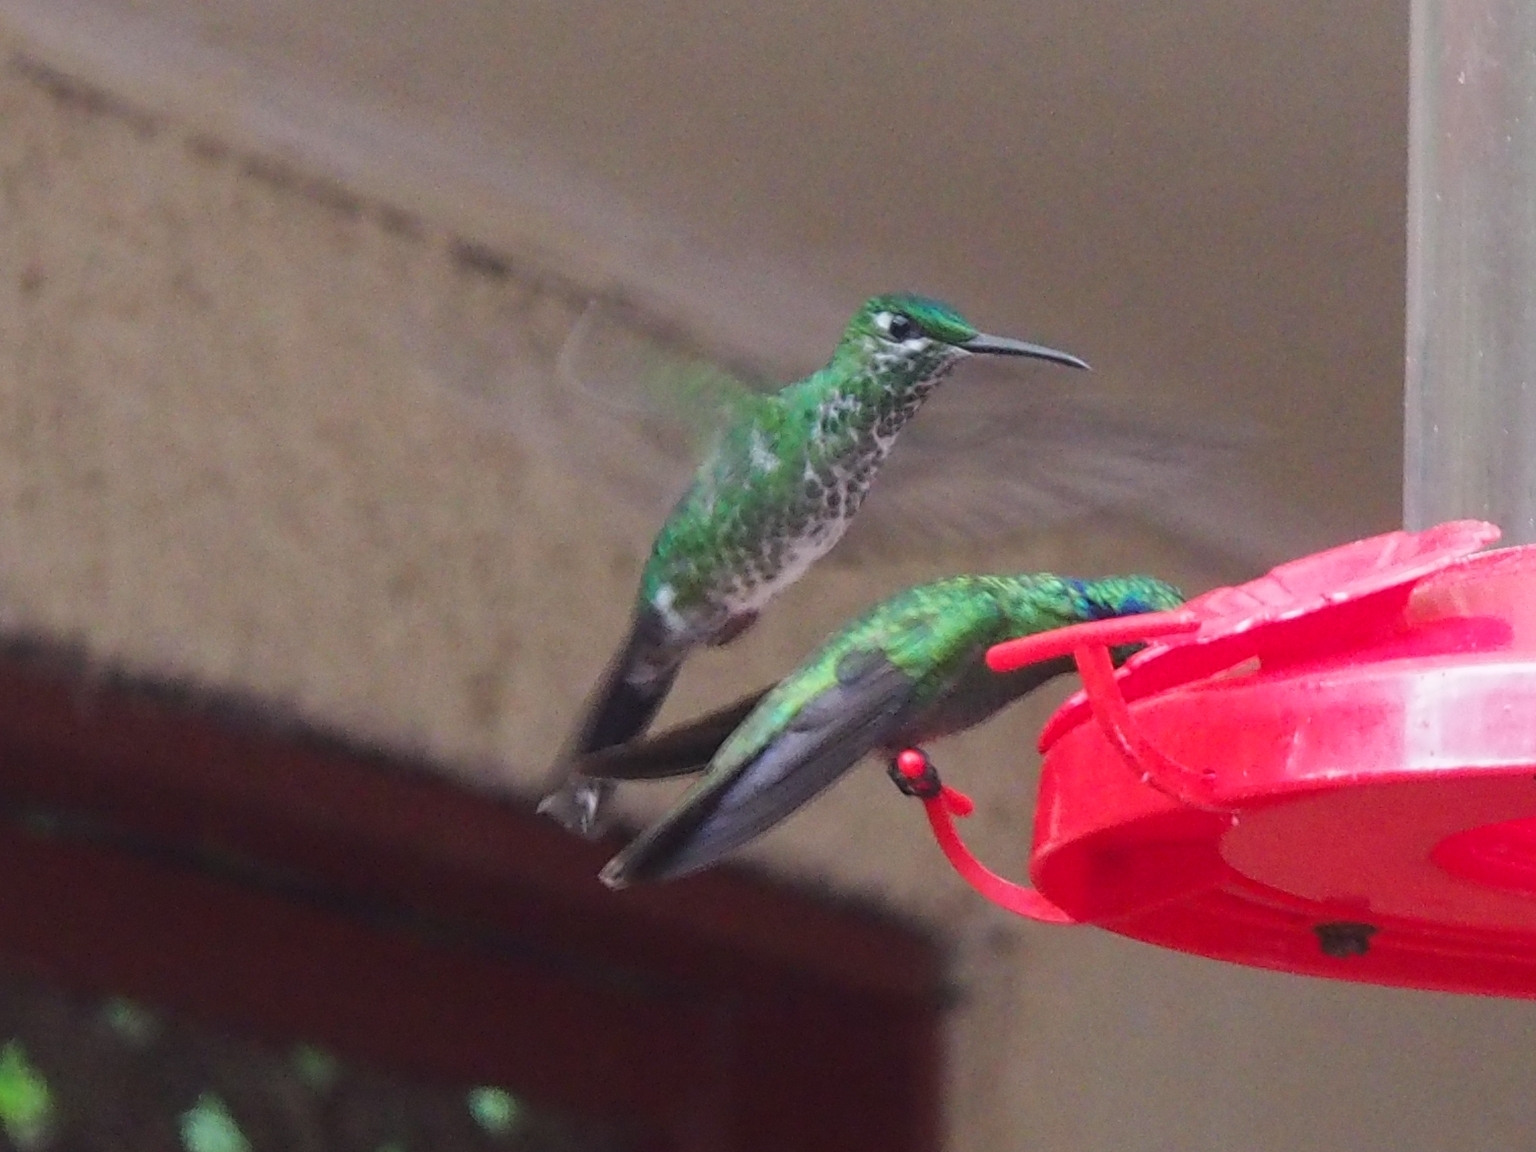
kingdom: Animalia
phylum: Chordata
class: Aves
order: Apodiformes
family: Trochilidae
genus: Heliodoxa
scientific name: Heliodoxa jacula
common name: Green-crowned brilliant
